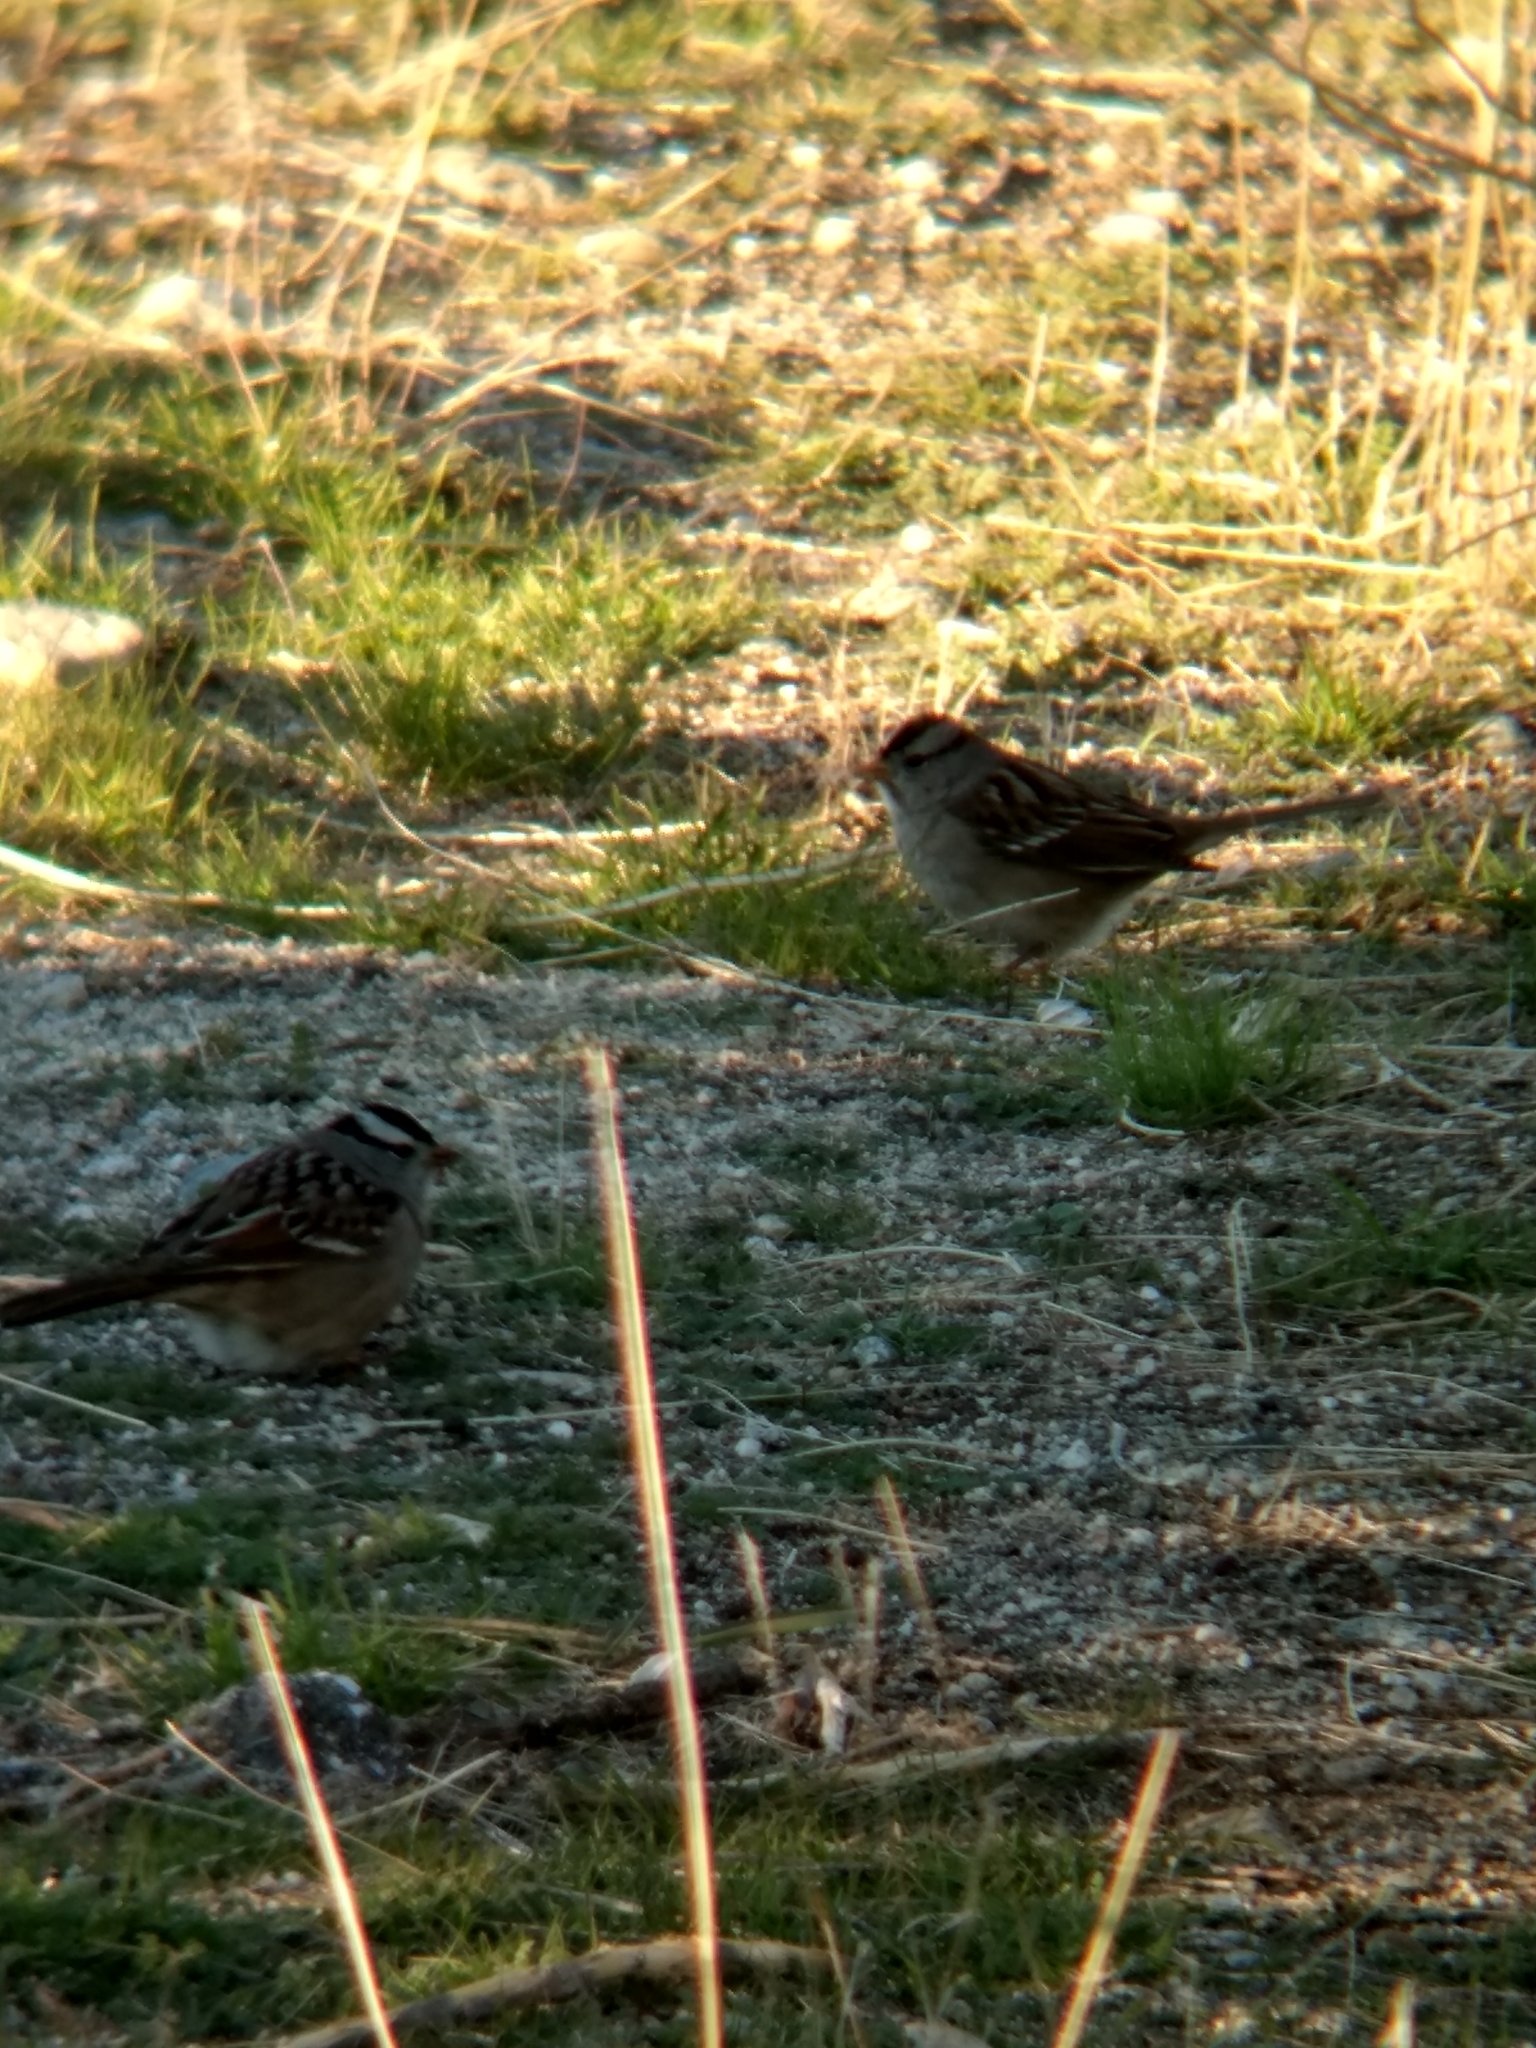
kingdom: Animalia
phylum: Chordata
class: Aves
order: Passeriformes
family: Passerellidae
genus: Zonotrichia
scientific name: Zonotrichia leucophrys
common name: White-crowned sparrow
